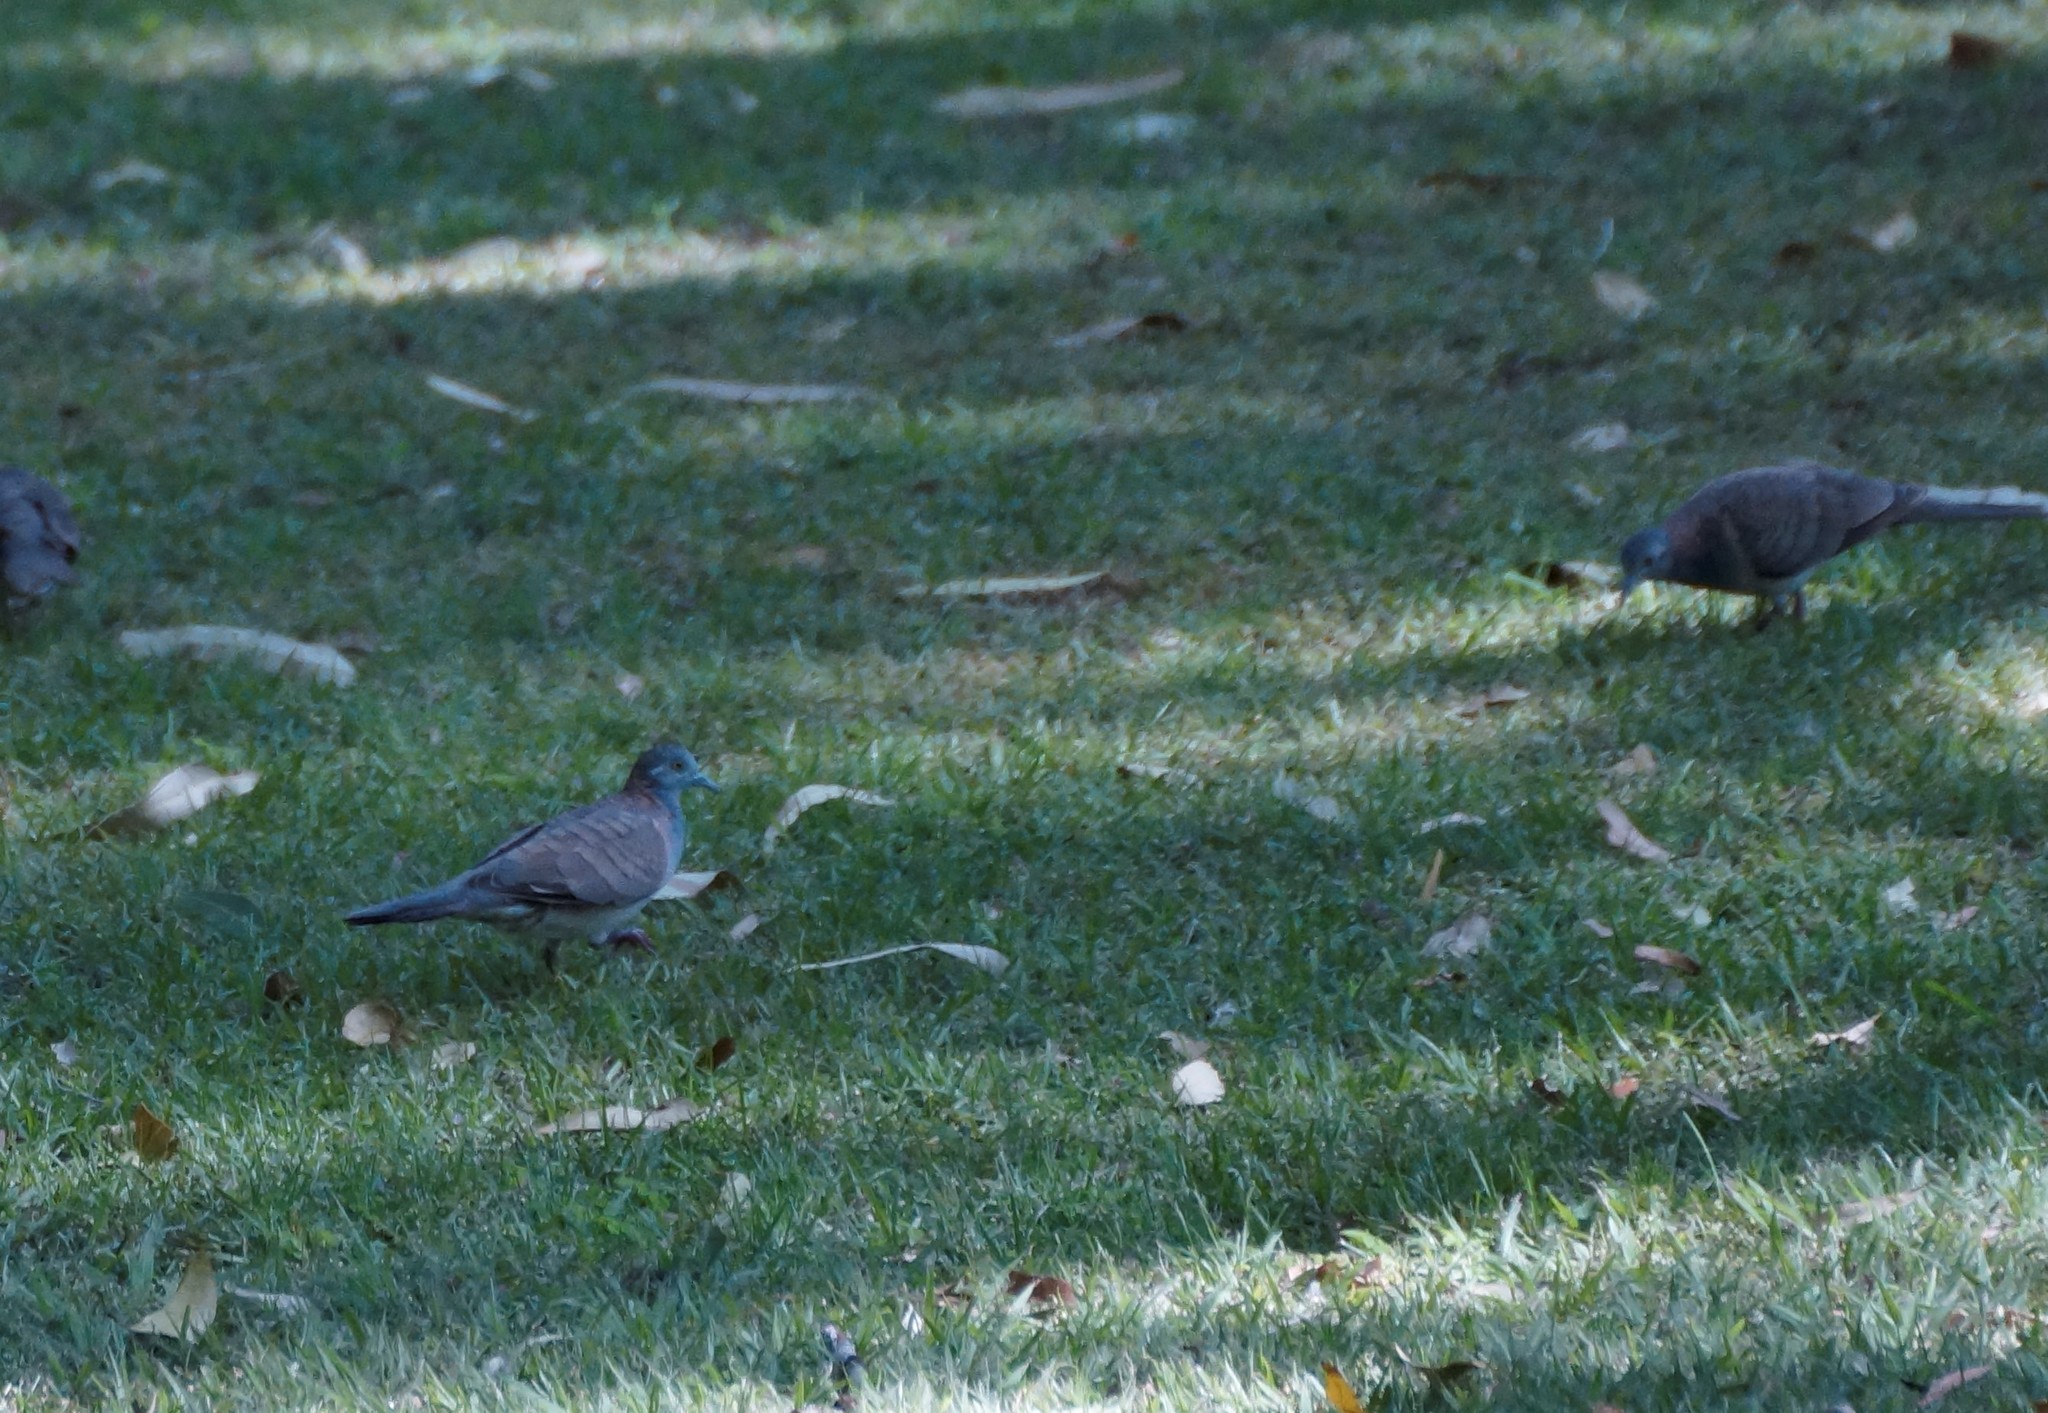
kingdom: Animalia
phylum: Chordata
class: Aves
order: Columbiformes
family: Columbidae
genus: Geopelia
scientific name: Geopelia humeralis
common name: Bar-shouldered dove
